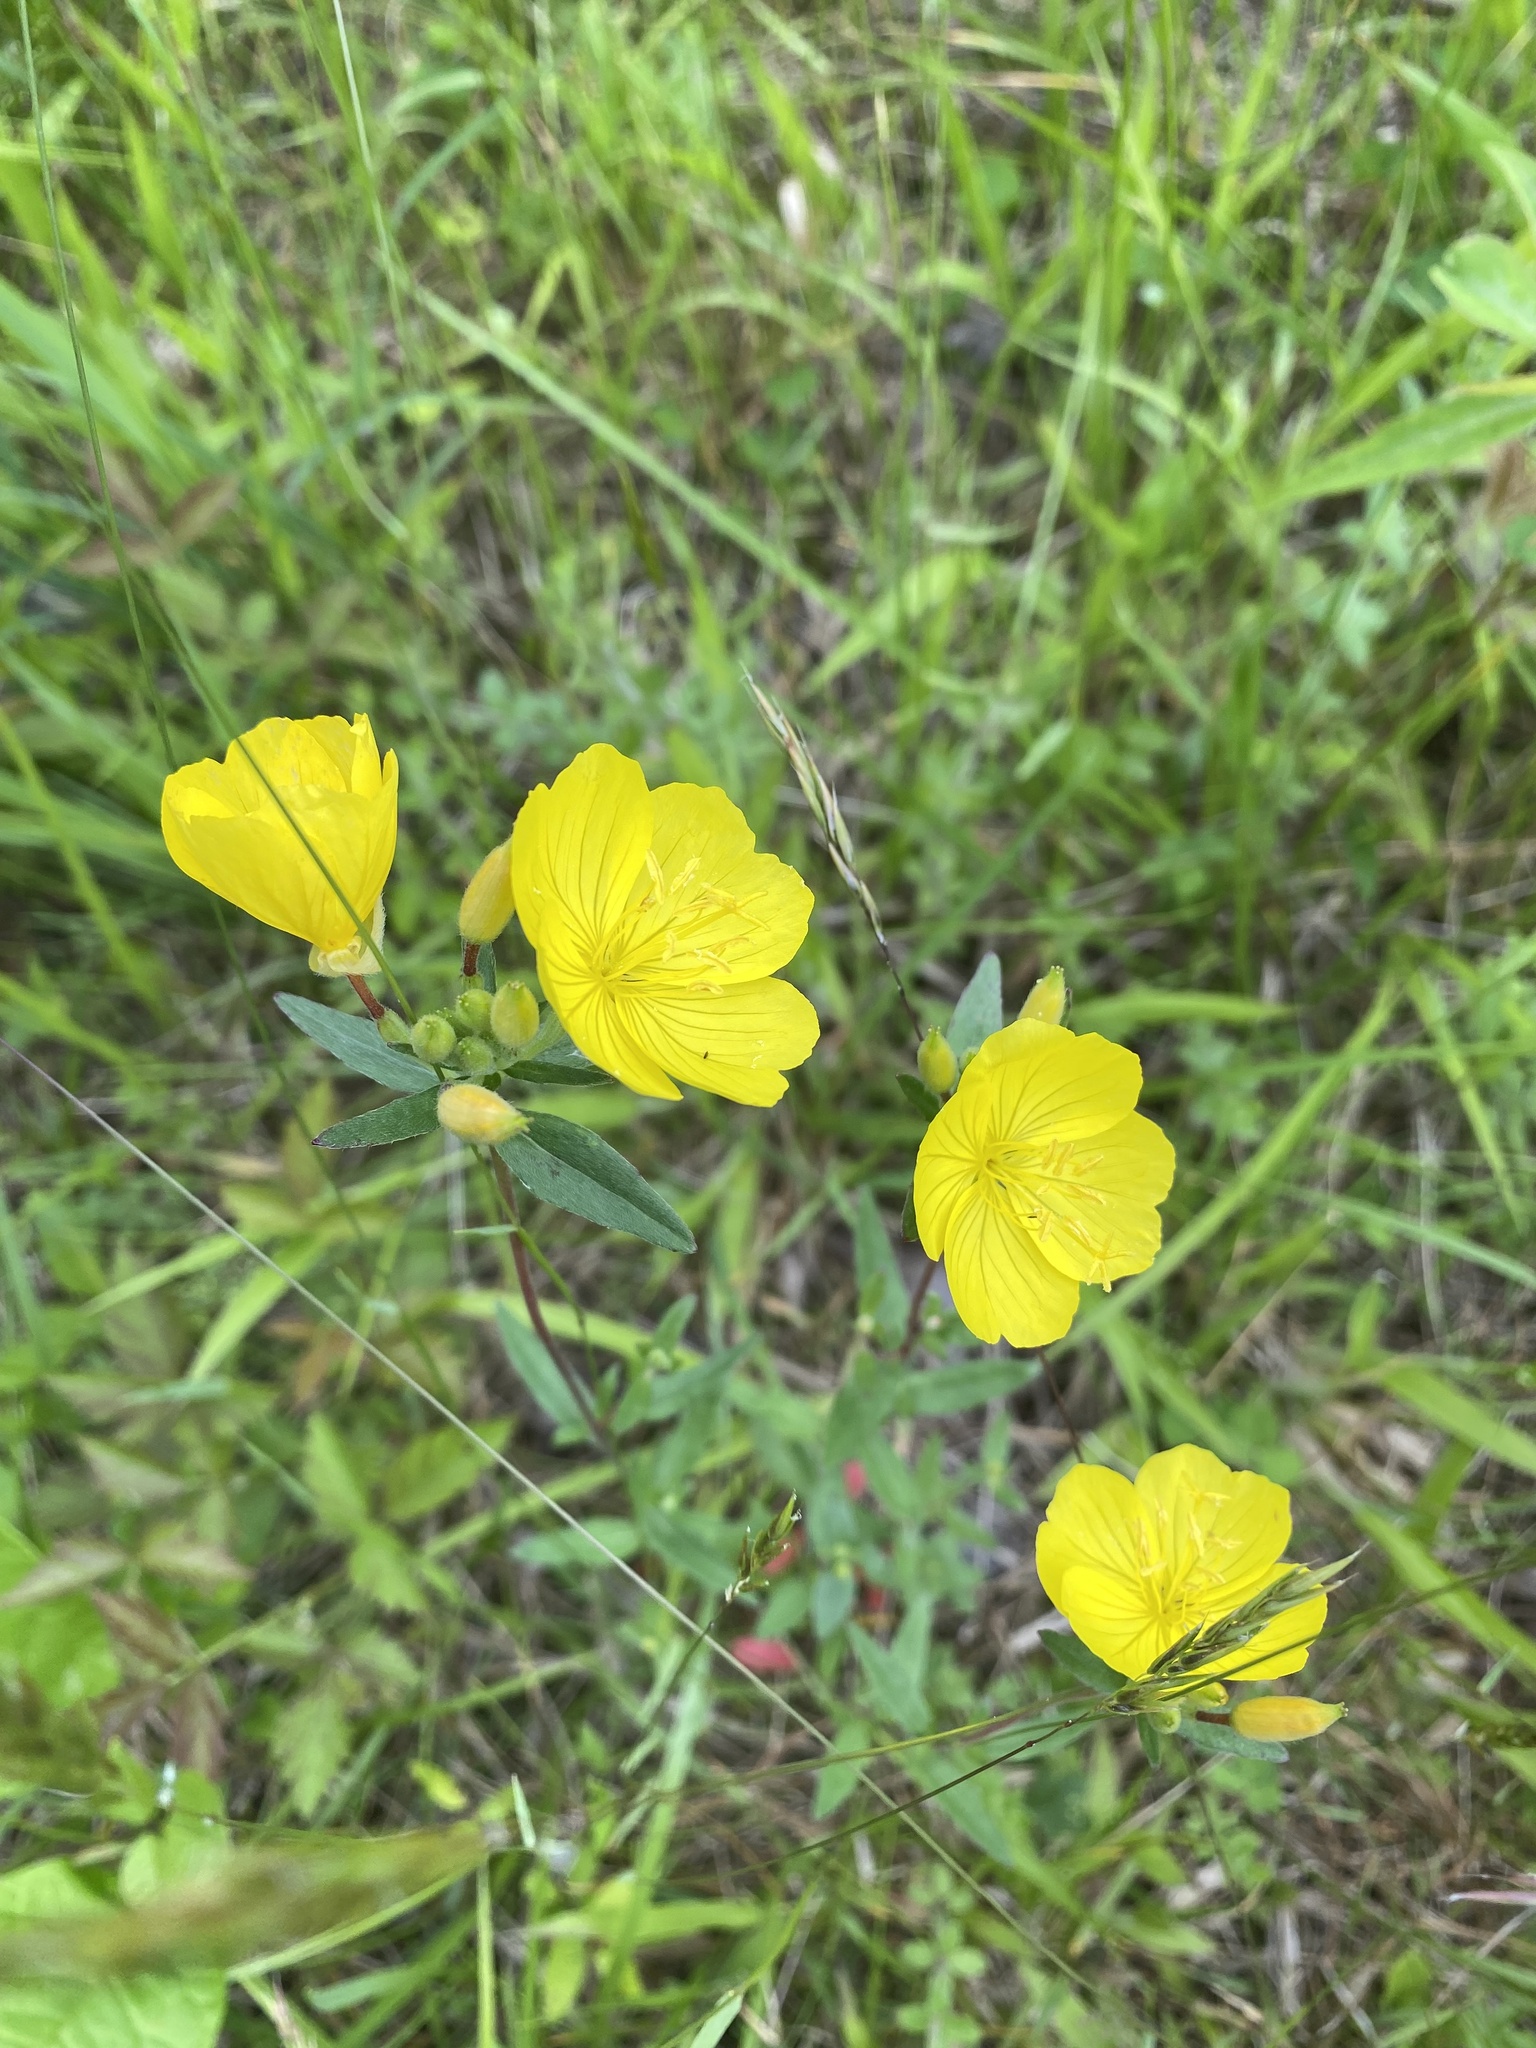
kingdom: Plantae
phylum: Tracheophyta
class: Magnoliopsida
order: Myrtales
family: Onagraceae
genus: Oenothera
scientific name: Oenothera fruticosa
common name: Southern sundrops
